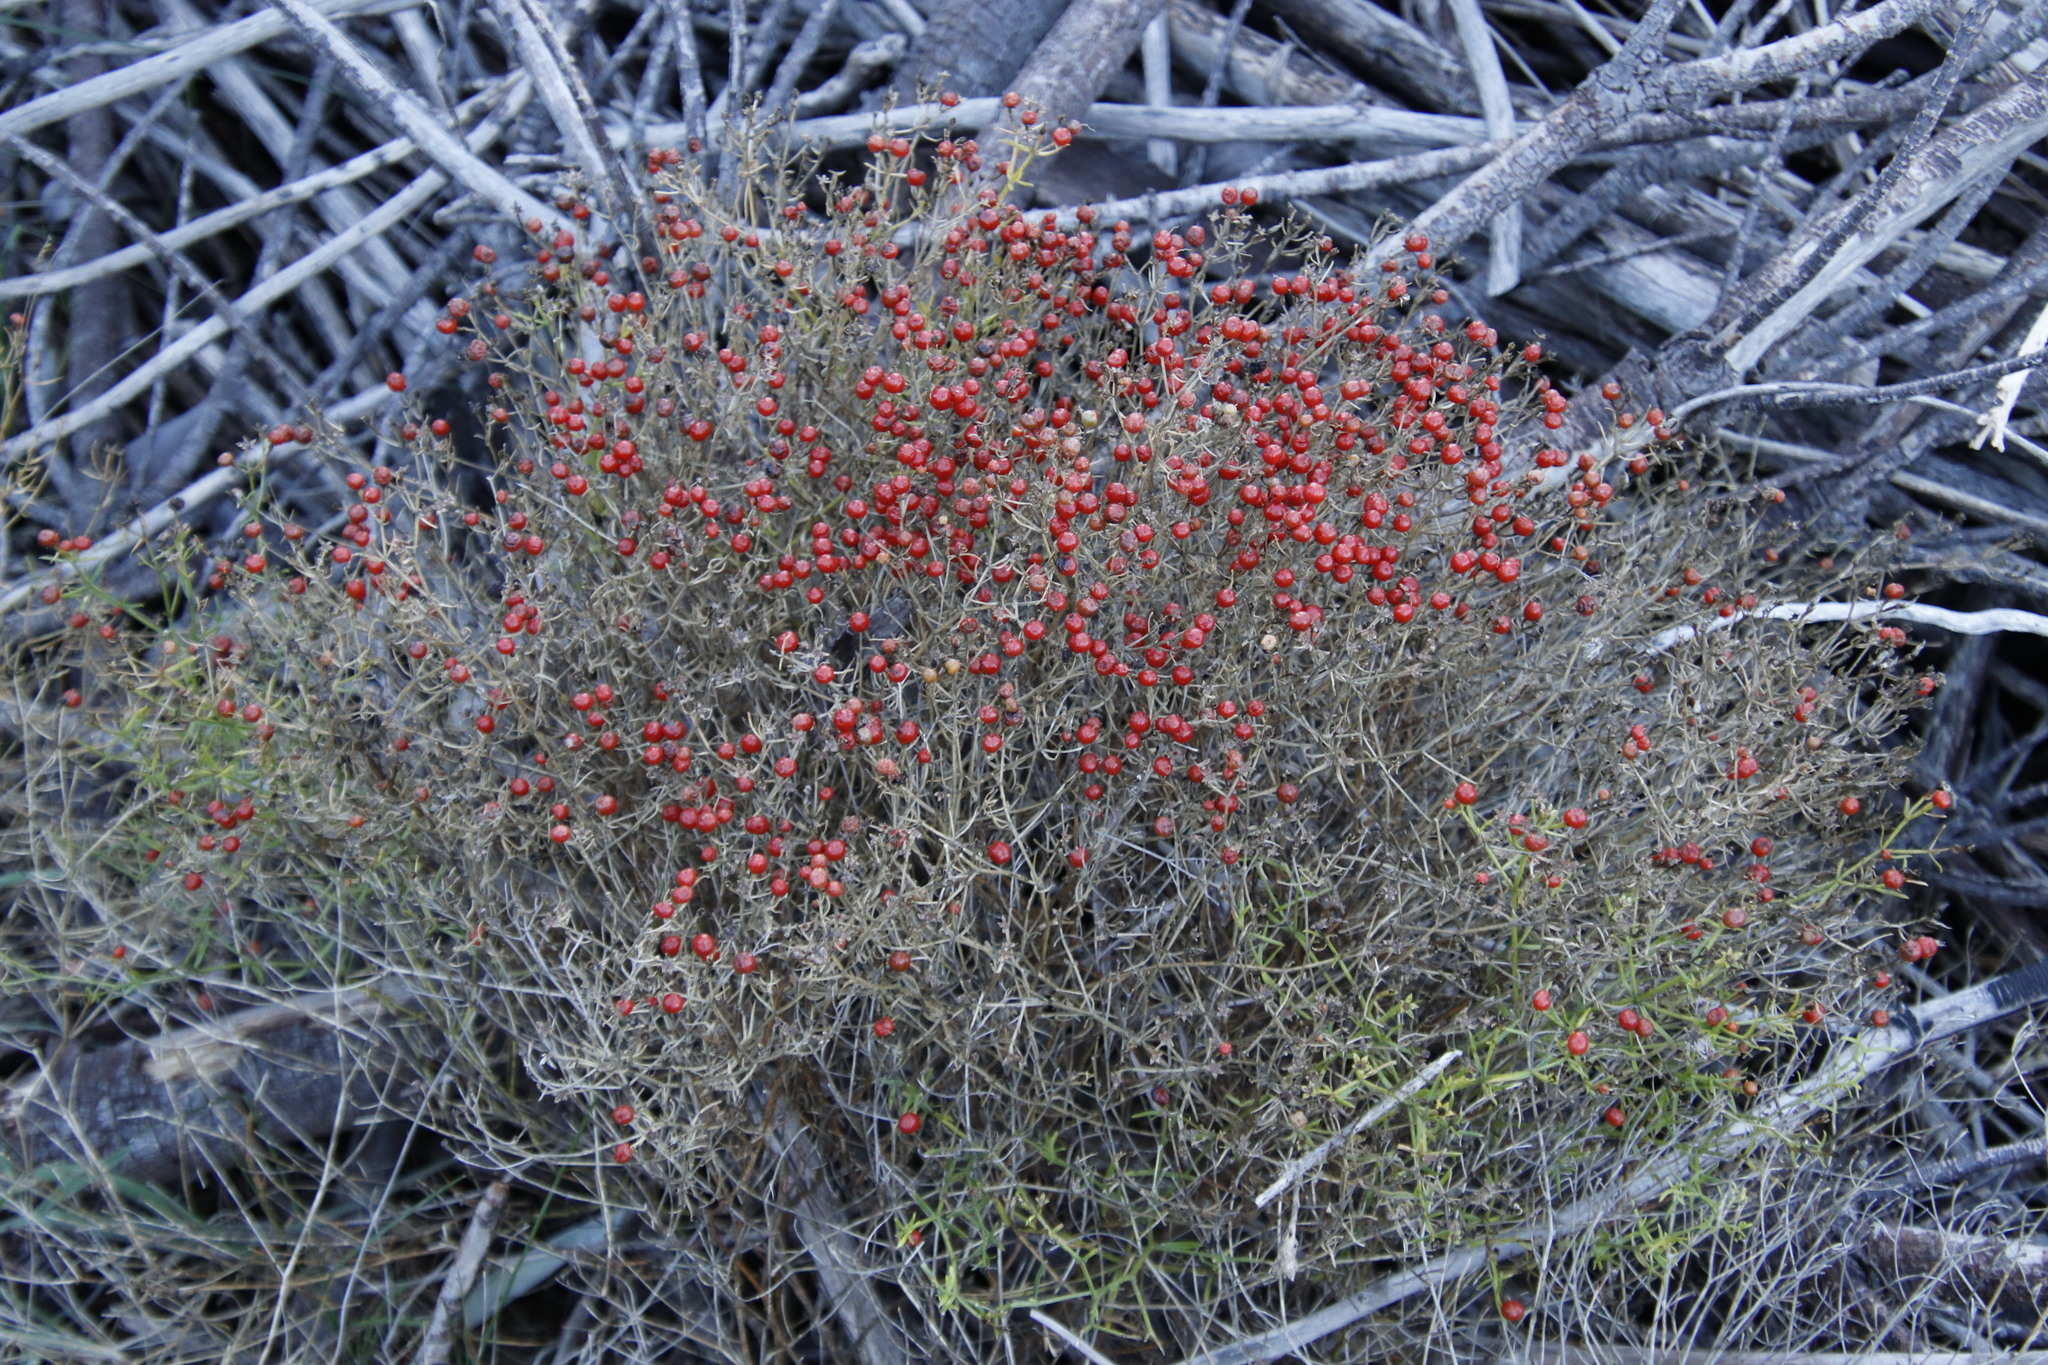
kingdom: Plantae
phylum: Tracheophyta
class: Magnoliopsida
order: Gentianales
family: Gentianaceae
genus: Chironia
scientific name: Chironia baccifera
